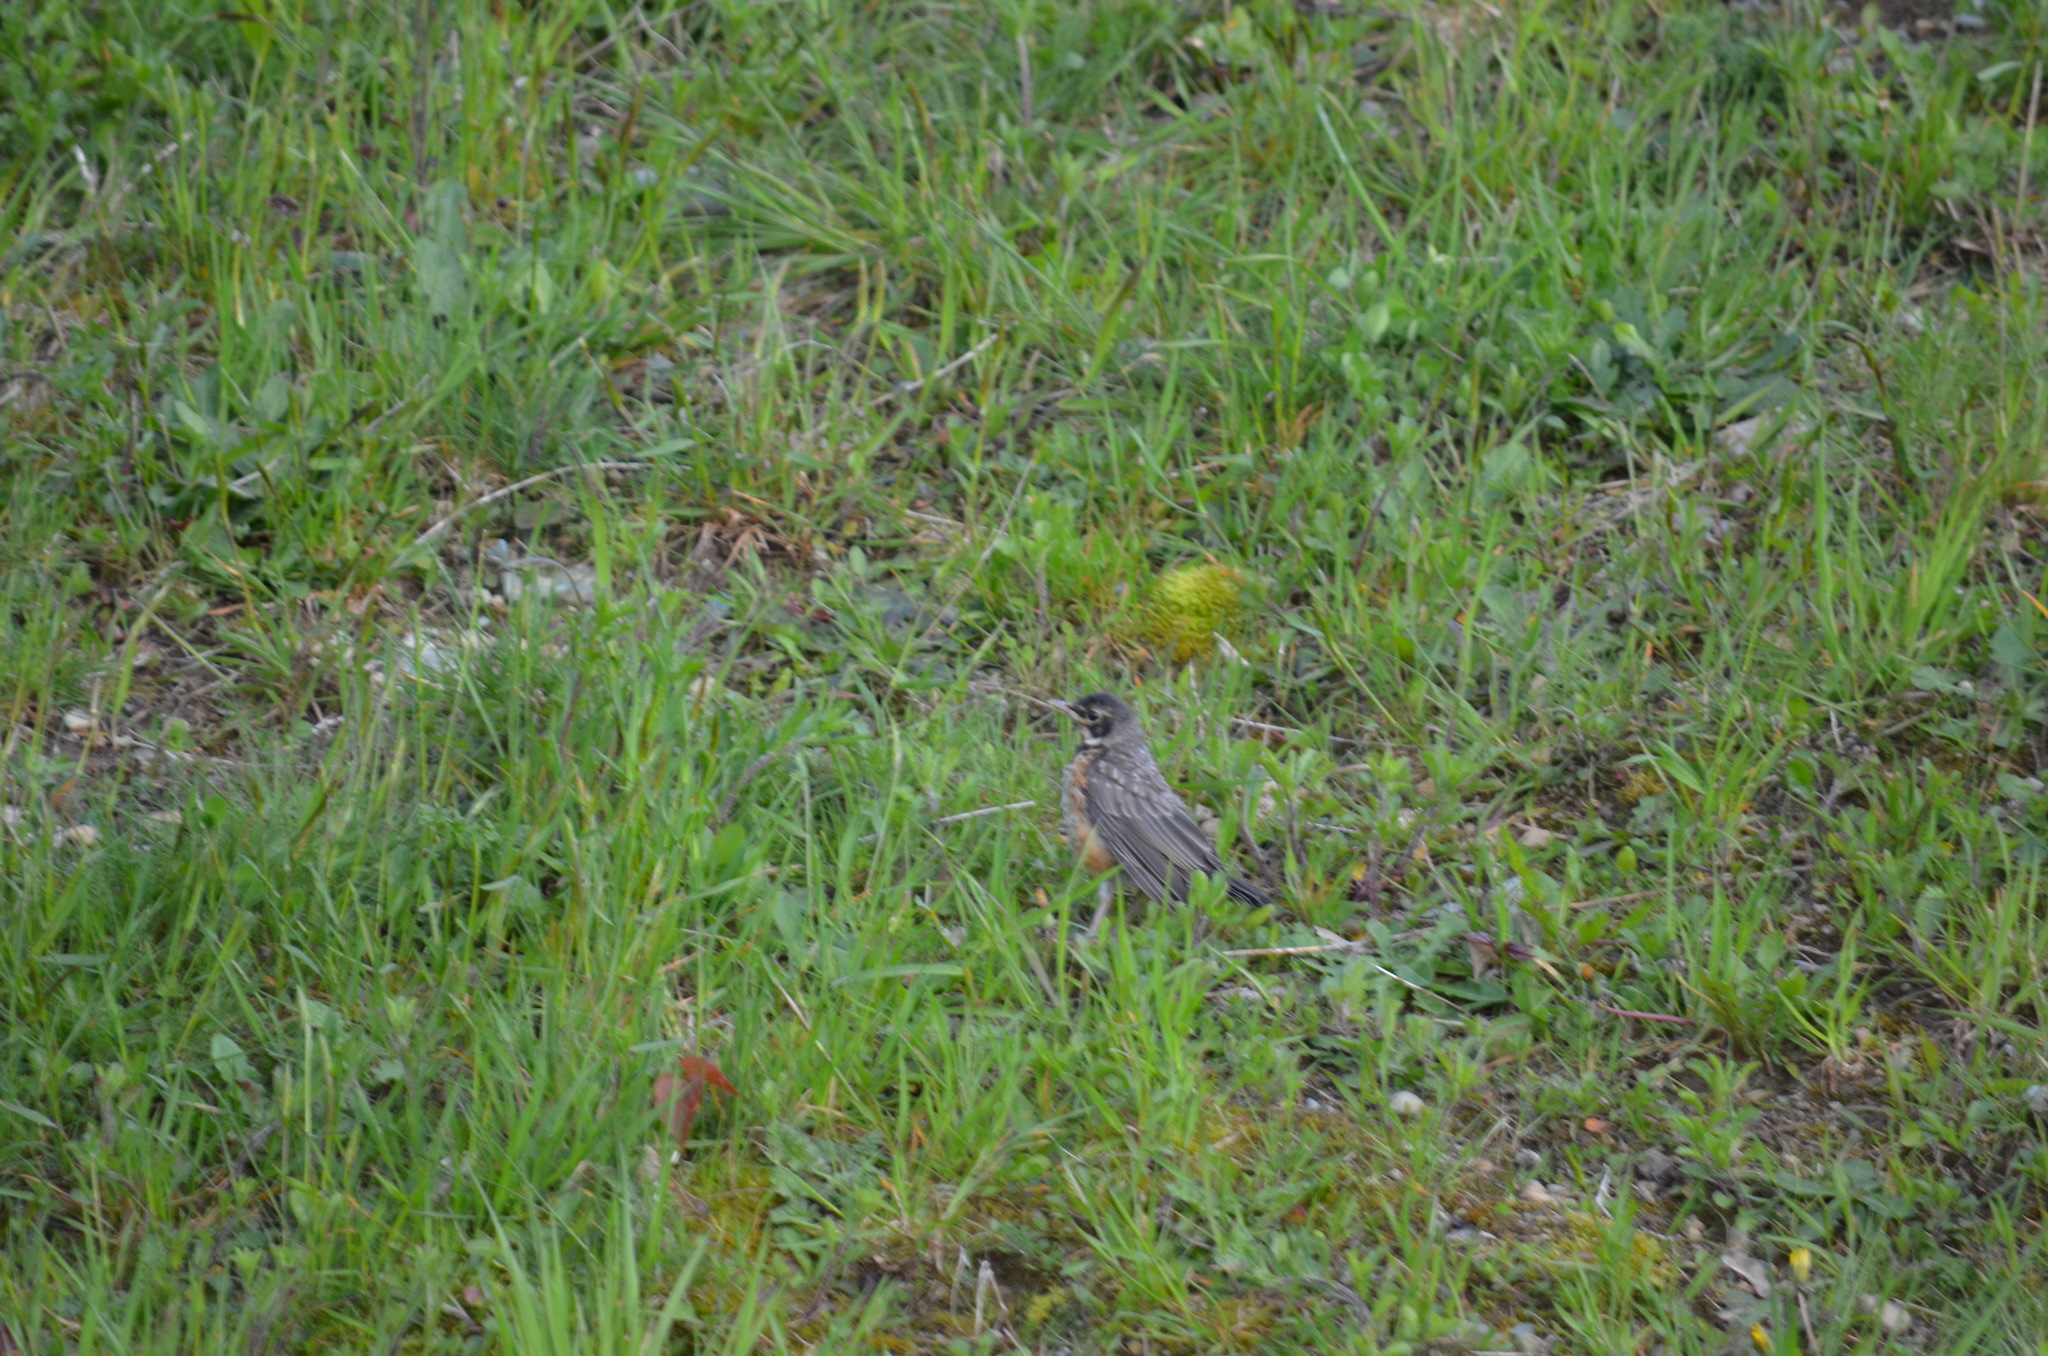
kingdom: Animalia
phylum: Chordata
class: Aves
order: Passeriformes
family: Turdidae
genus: Turdus
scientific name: Turdus migratorius
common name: American robin
